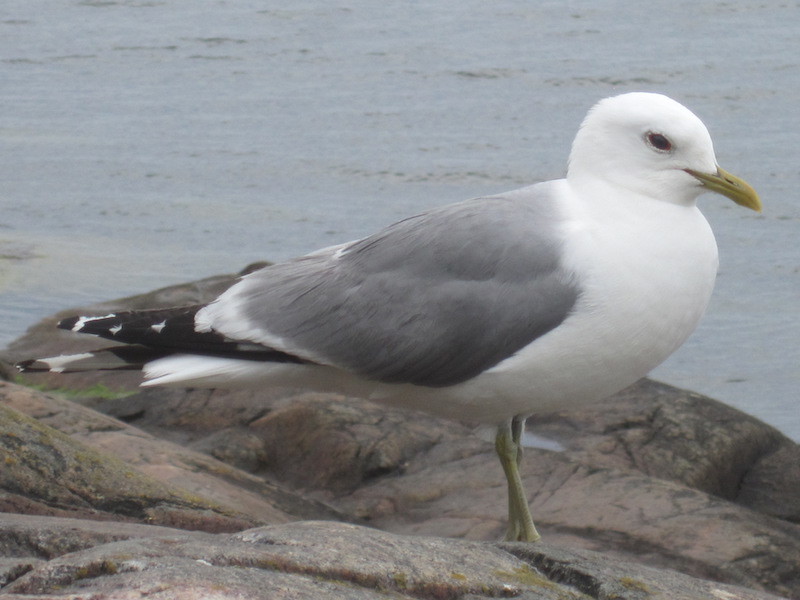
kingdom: Animalia
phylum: Chordata
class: Aves
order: Charadriiformes
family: Laridae
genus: Larus
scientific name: Larus canus
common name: Mew gull
